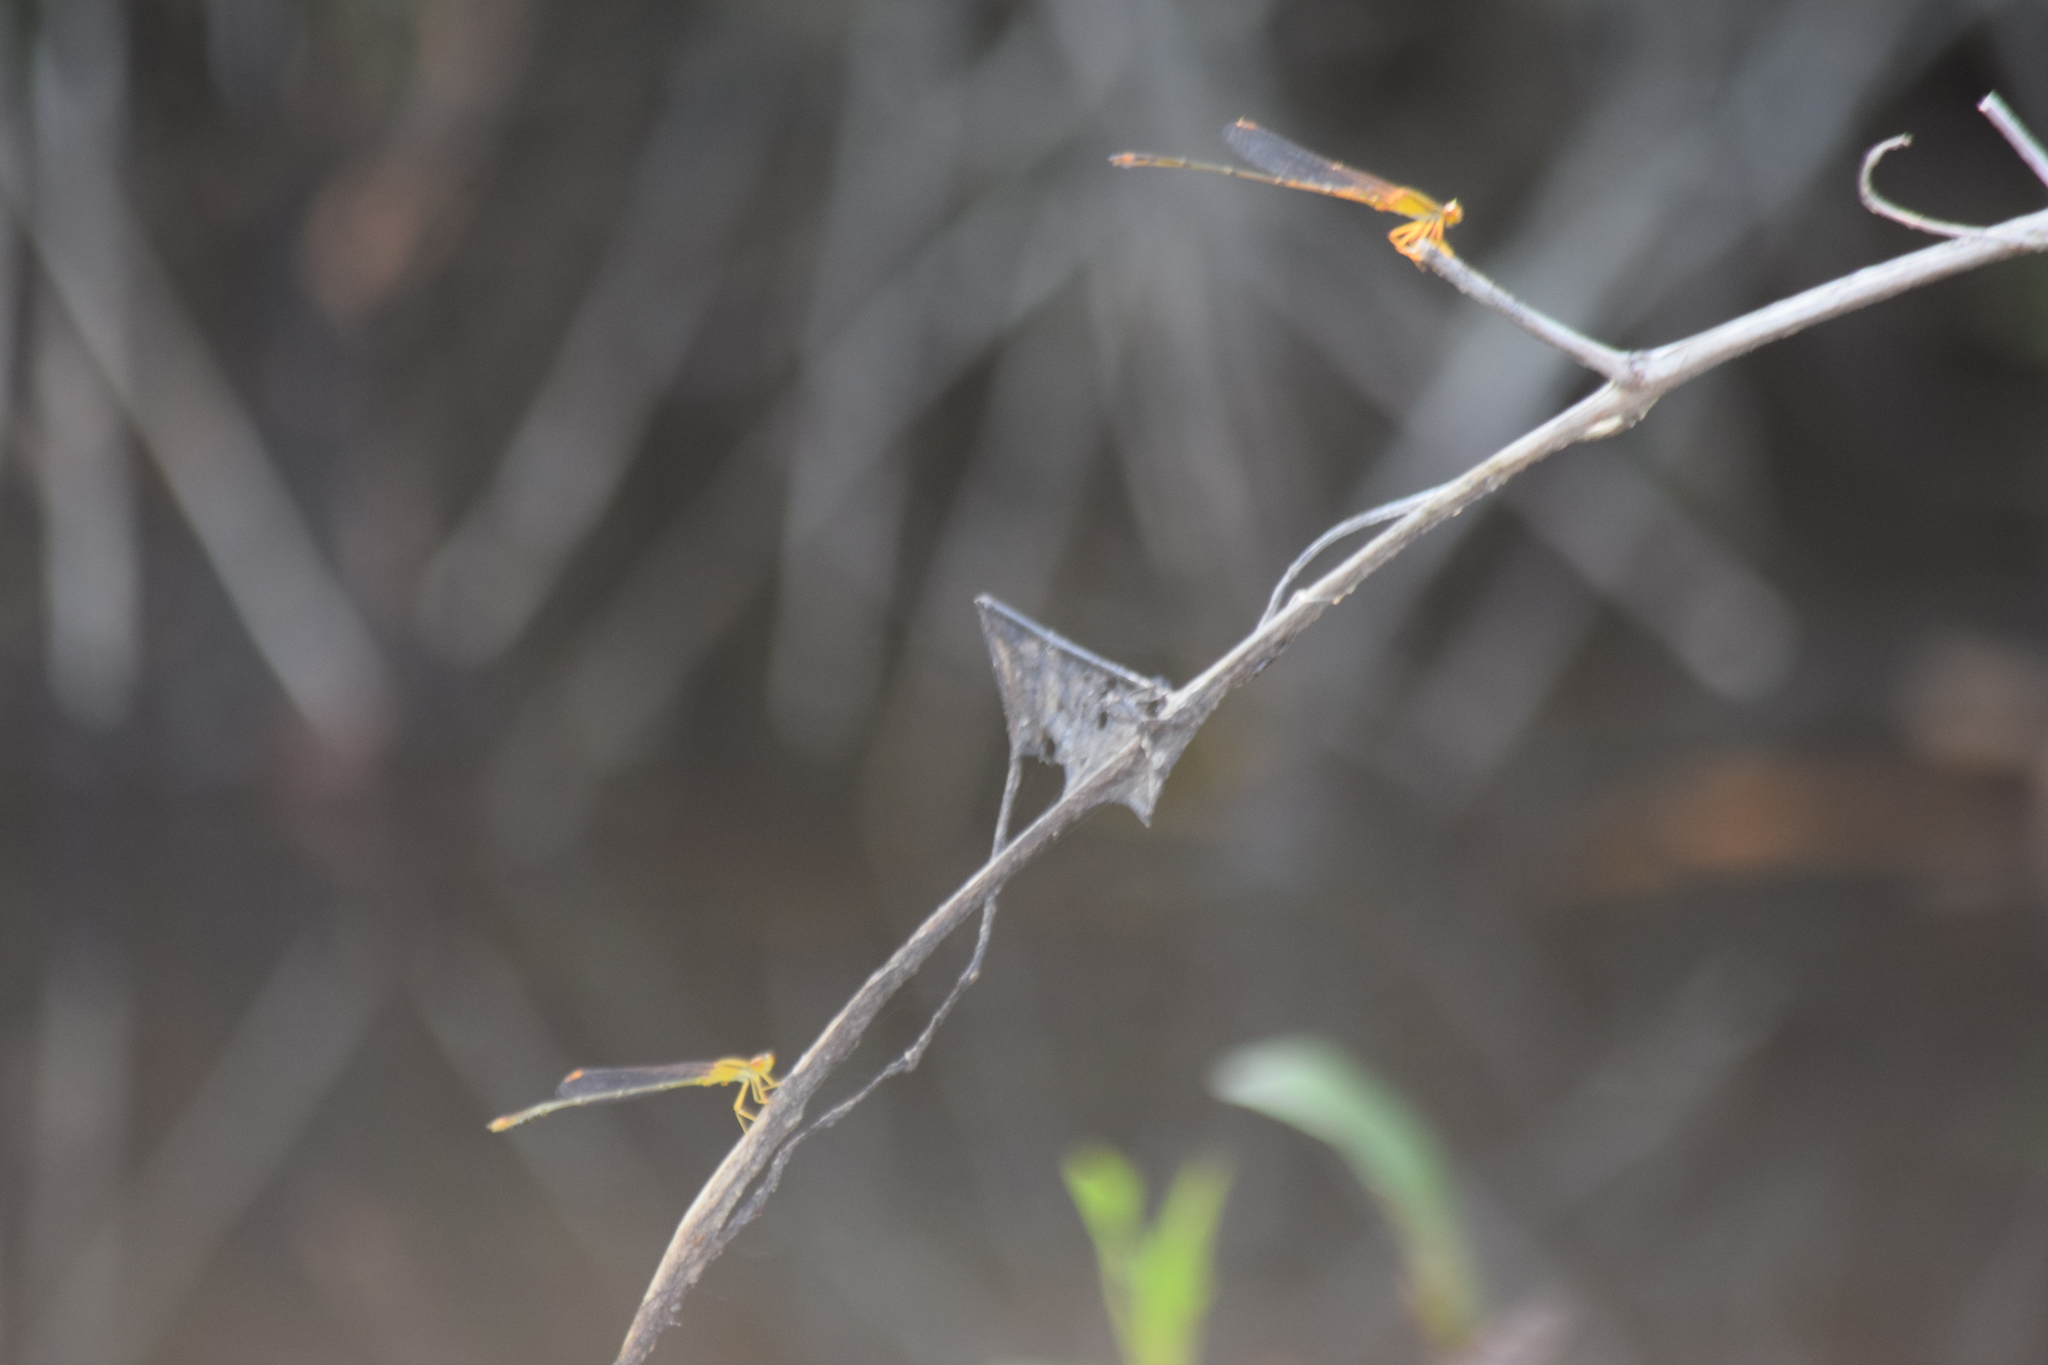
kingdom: Animalia
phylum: Arthropoda
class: Insecta
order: Odonata
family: Coenagrionidae
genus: Enallagma
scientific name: Enallagma signatum
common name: Orange bluet
